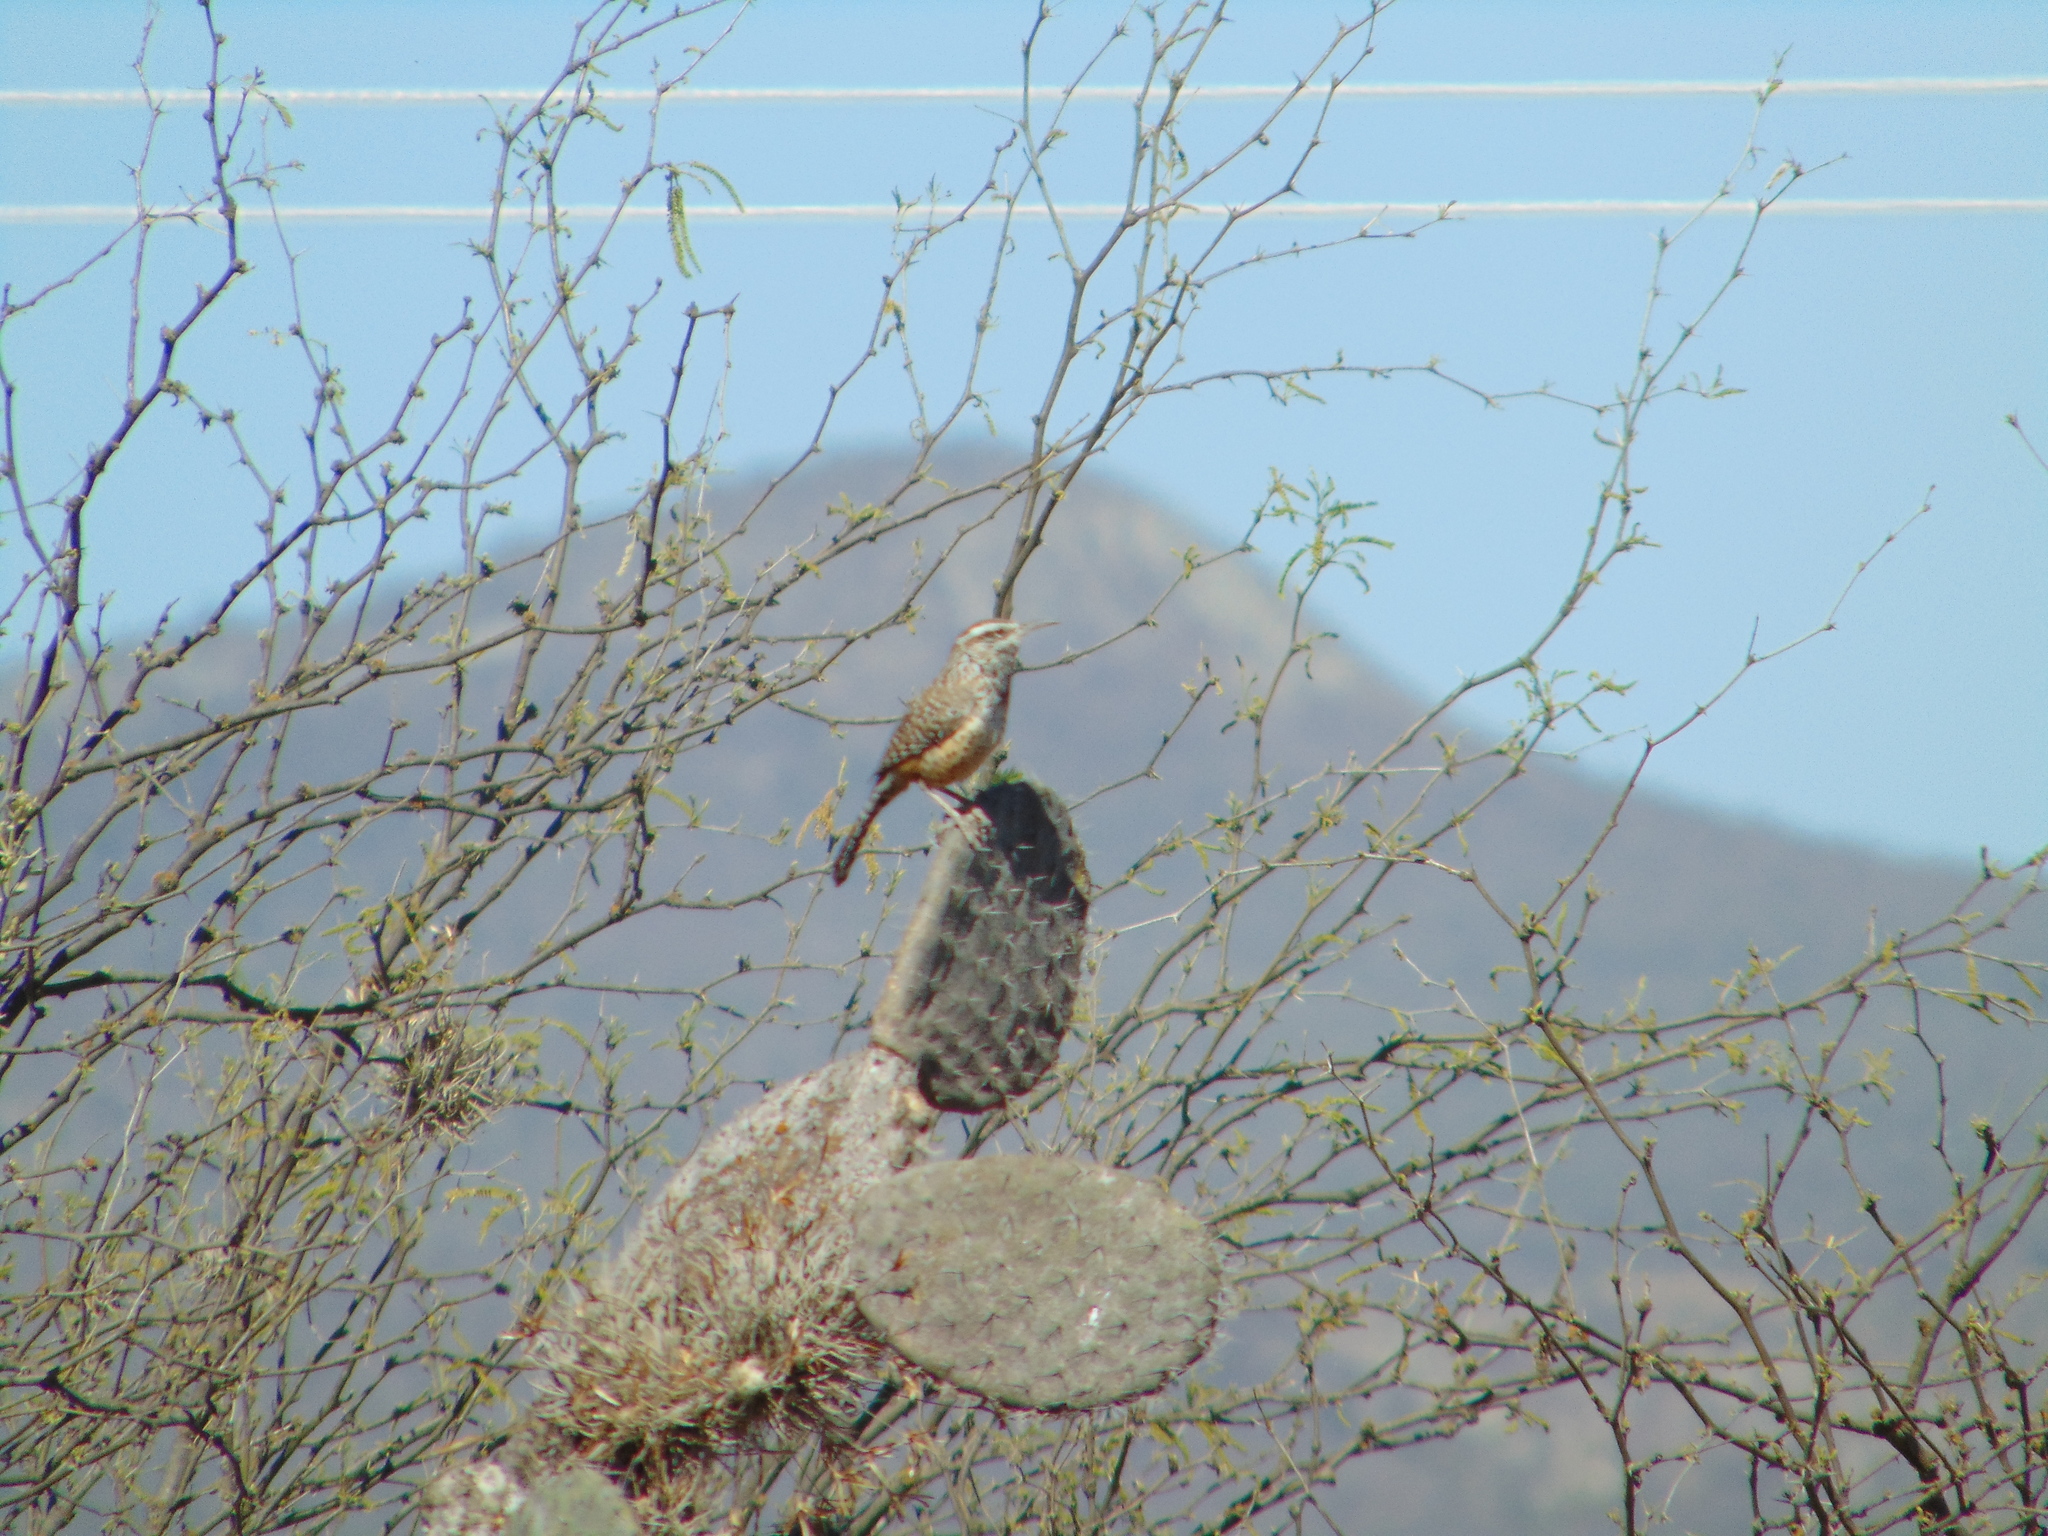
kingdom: Animalia
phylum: Chordata
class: Aves
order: Passeriformes
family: Troglodytidae
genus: Campylorhynchus
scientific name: Campylorhynchus brunneicapillus
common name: Cactus wren
